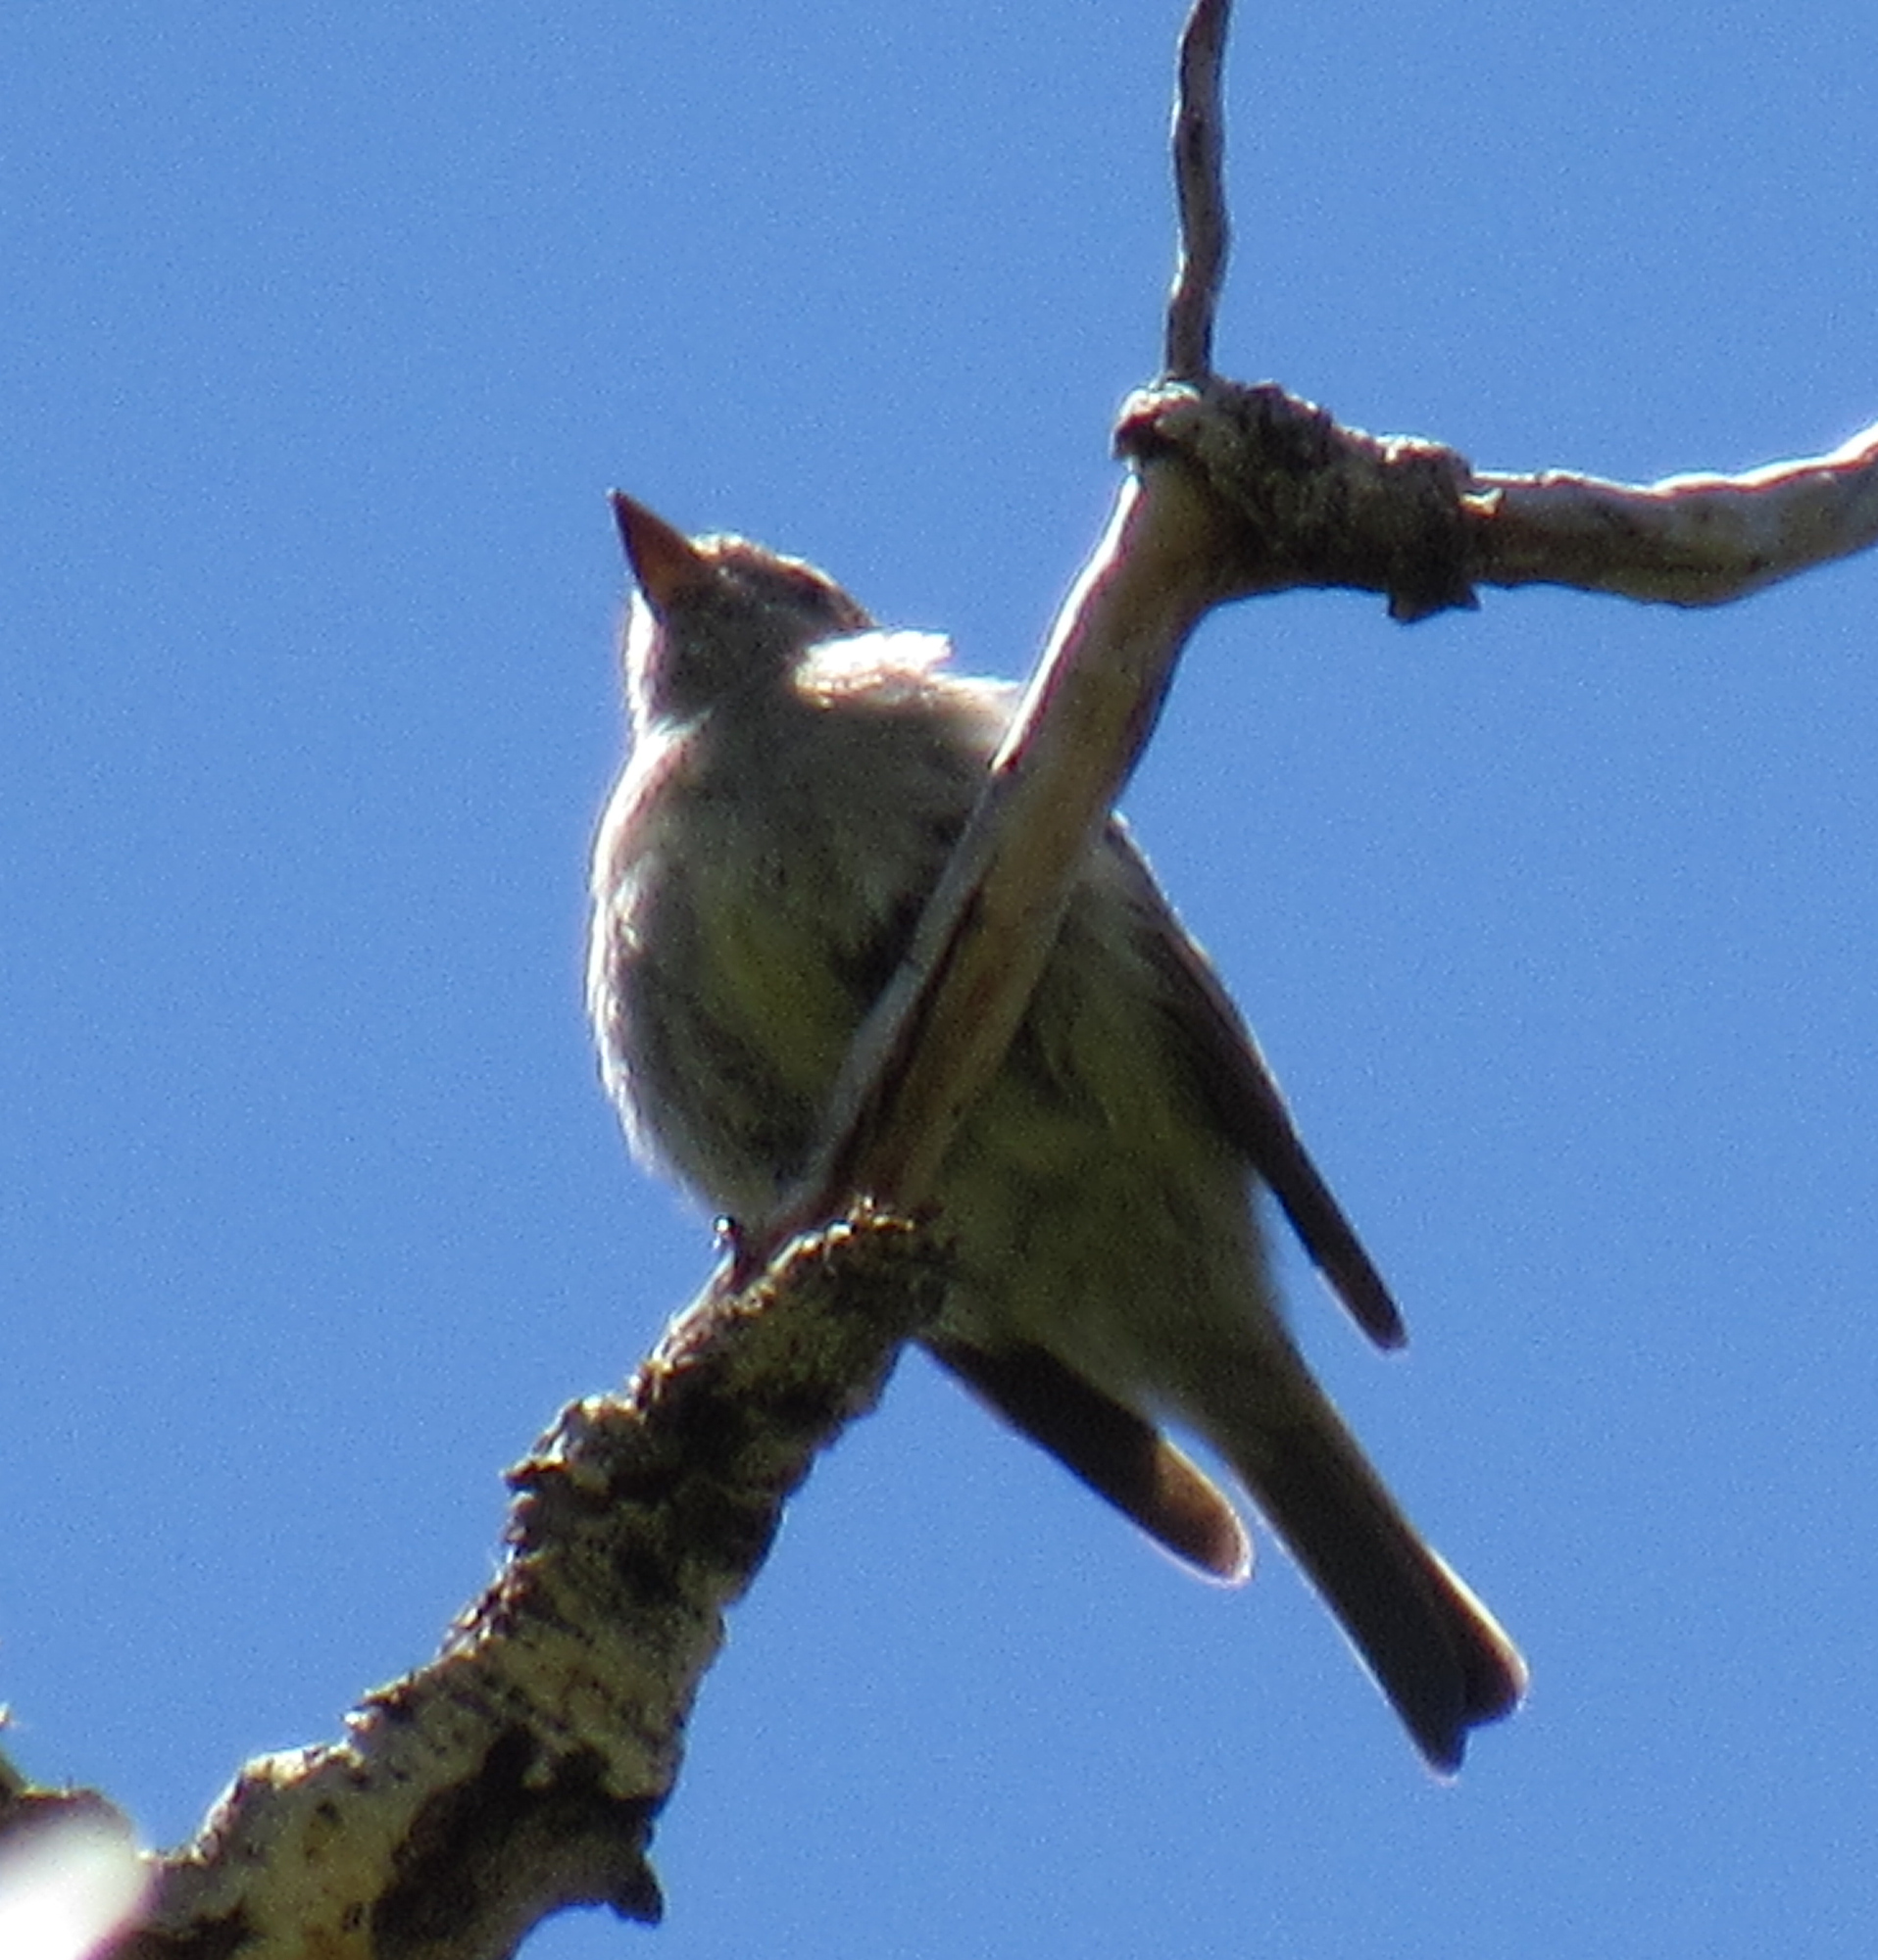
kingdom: Animalia
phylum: Chordata
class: Aves
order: Passeriformes
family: Tyrannidae
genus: Contopus
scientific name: Contopus sordidulus
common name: Western wood-pewee
